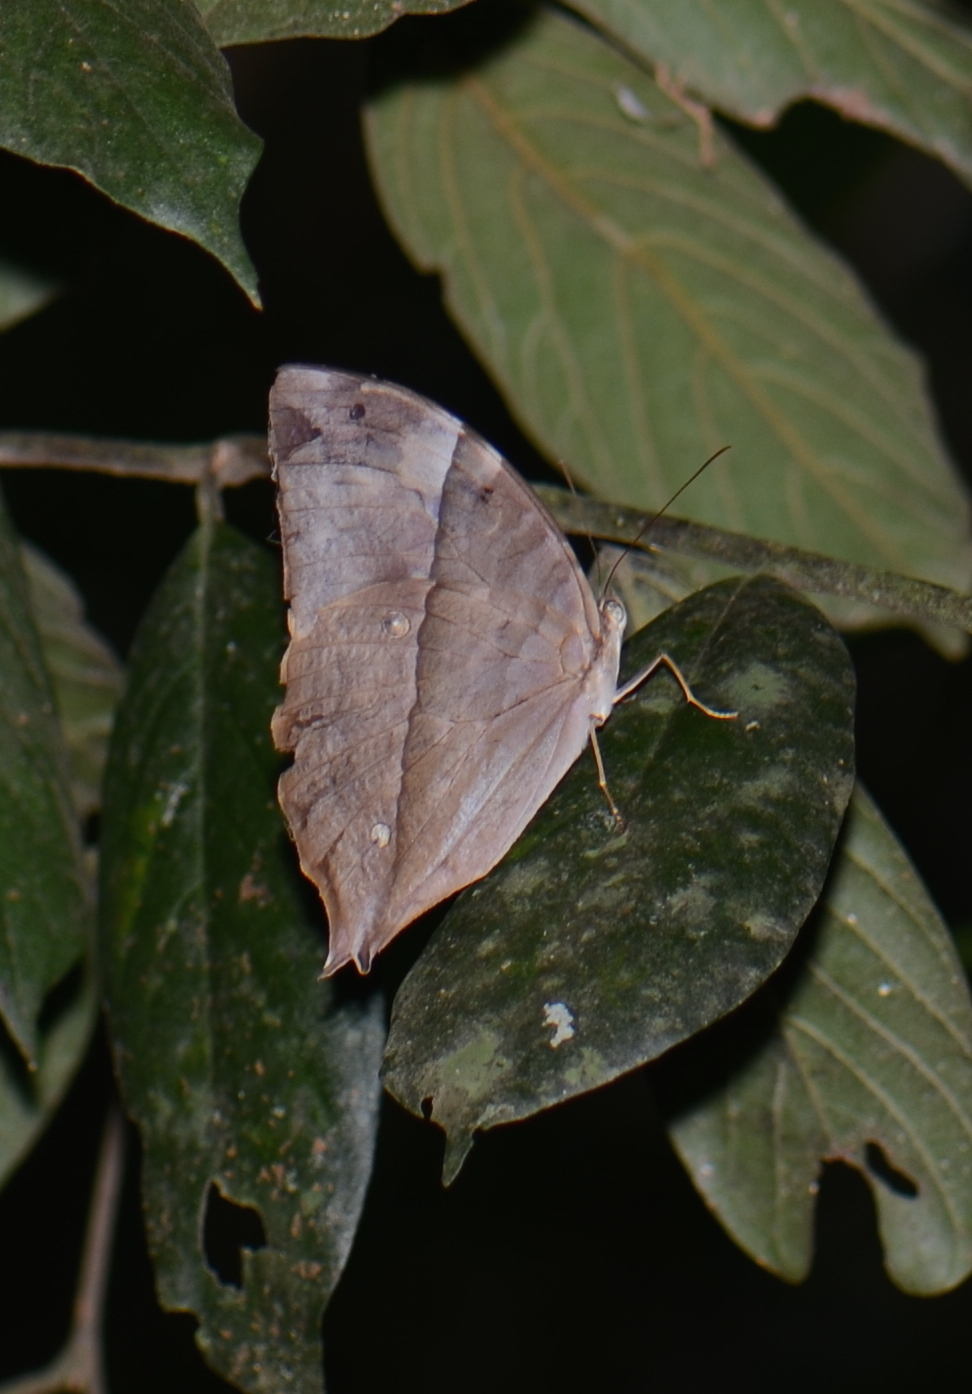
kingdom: Animalia
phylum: Arthropoda
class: Insecta
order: Lepidoptera
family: Nymphalidae
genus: Zeuxidia
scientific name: Zeuxidia doubledaii
